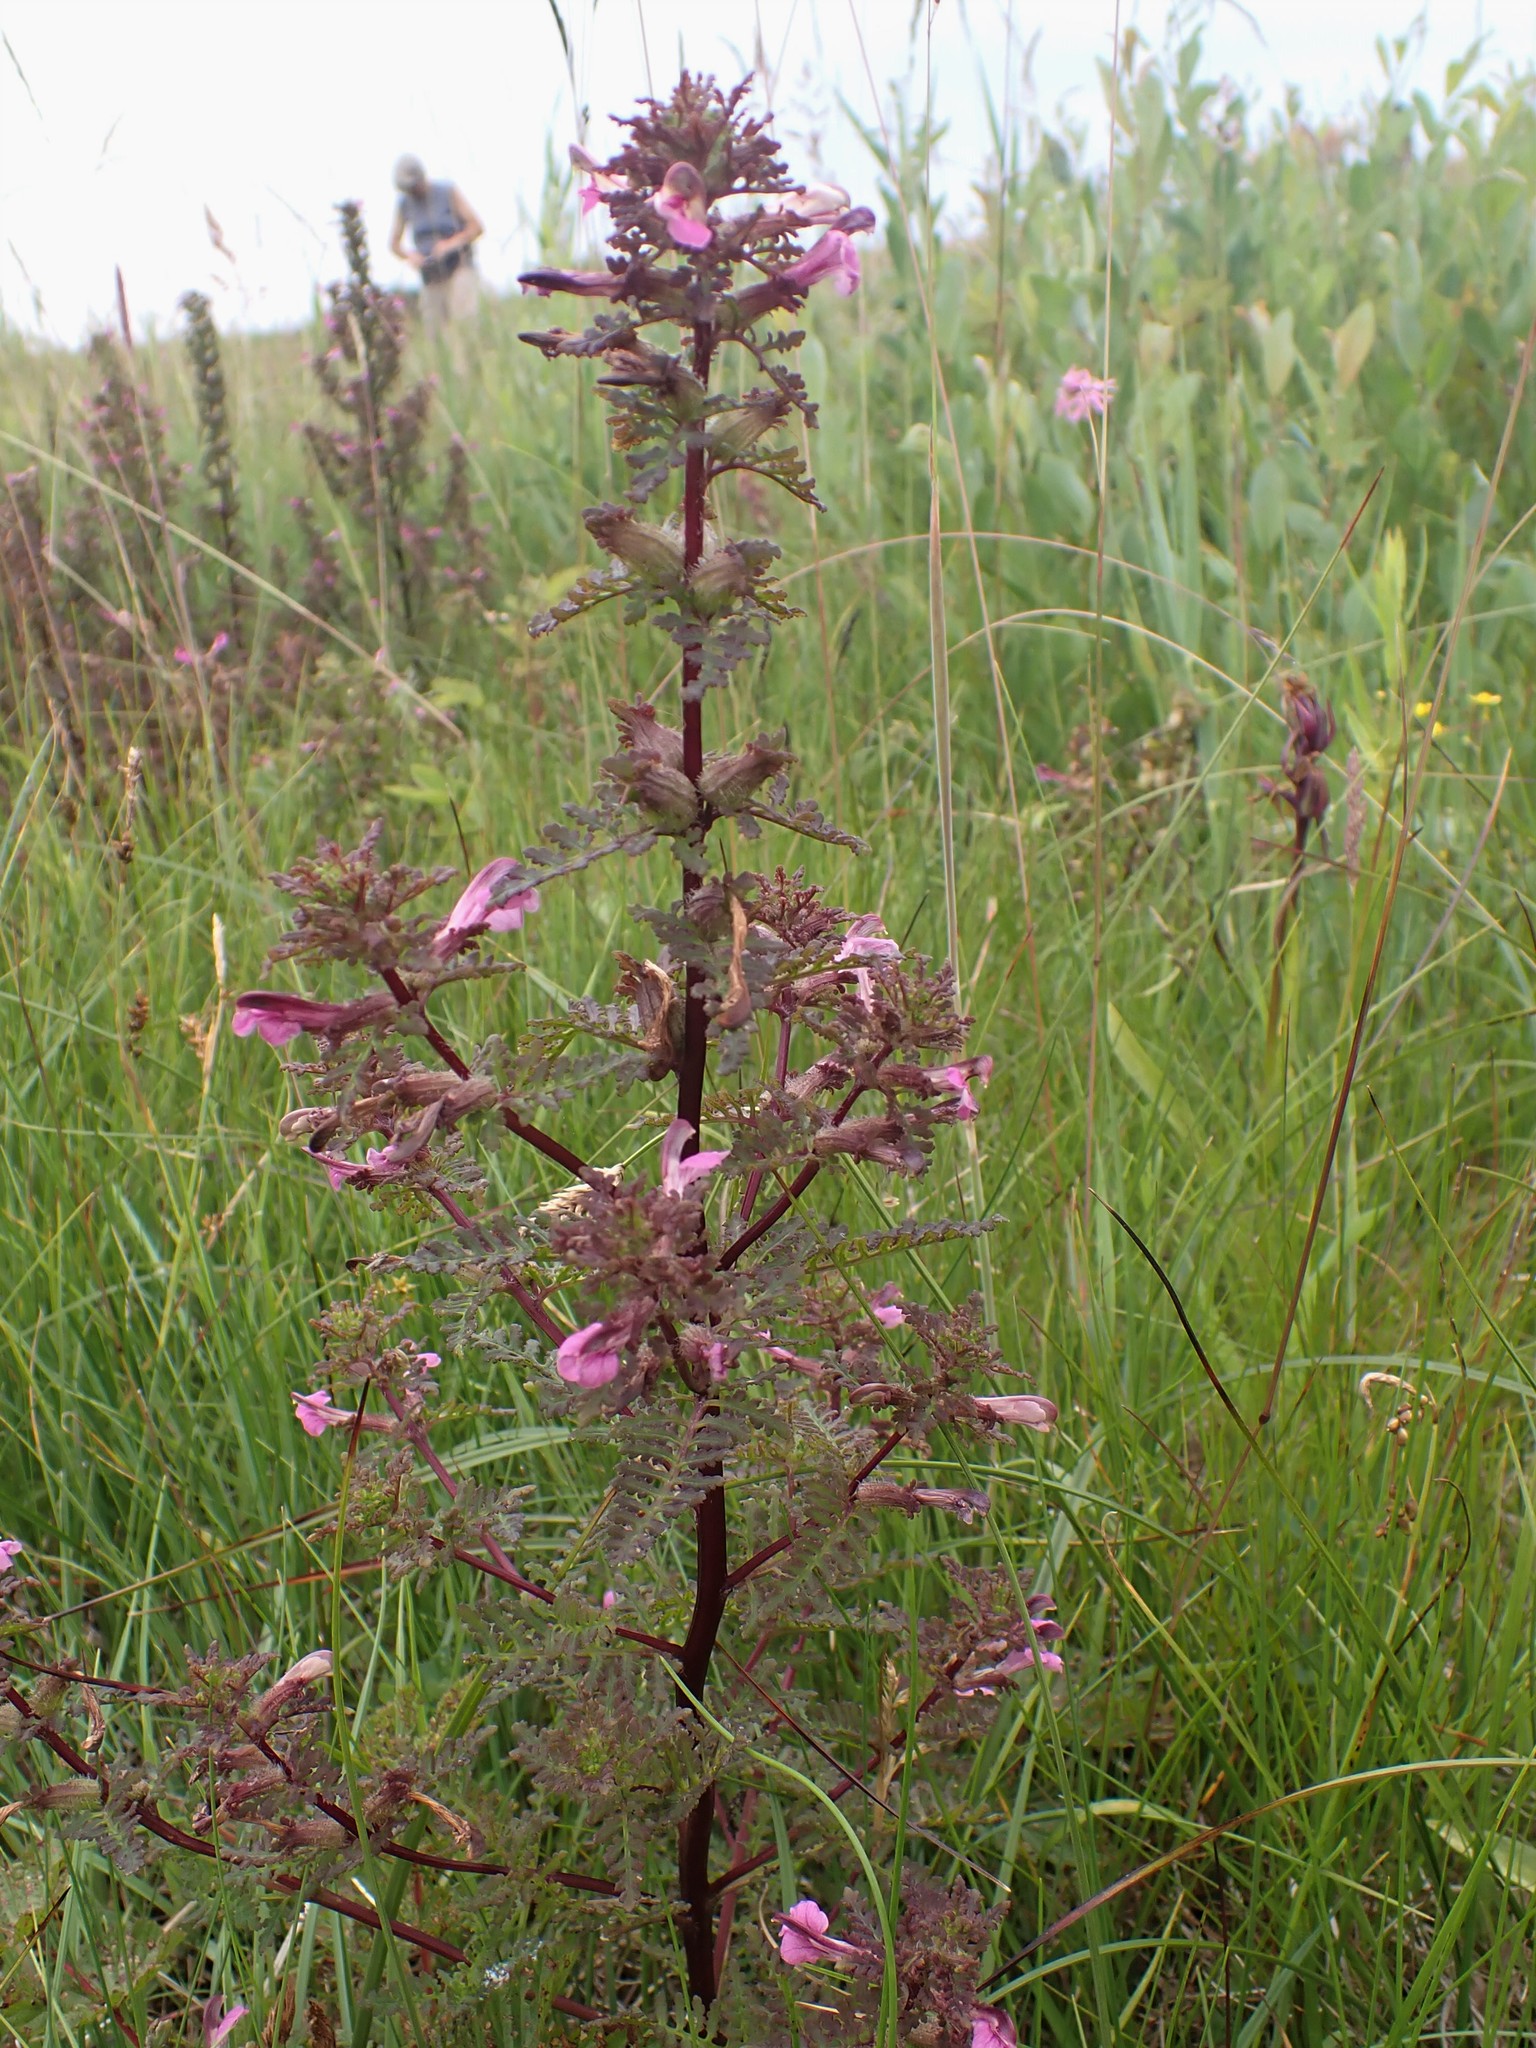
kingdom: Plantae
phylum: Tracheophyta
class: Magnoliopsida
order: Lamiales
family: Orobanchaceae
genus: Pedicularis
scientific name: Pedicularis palustris
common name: Marsh lousewort
